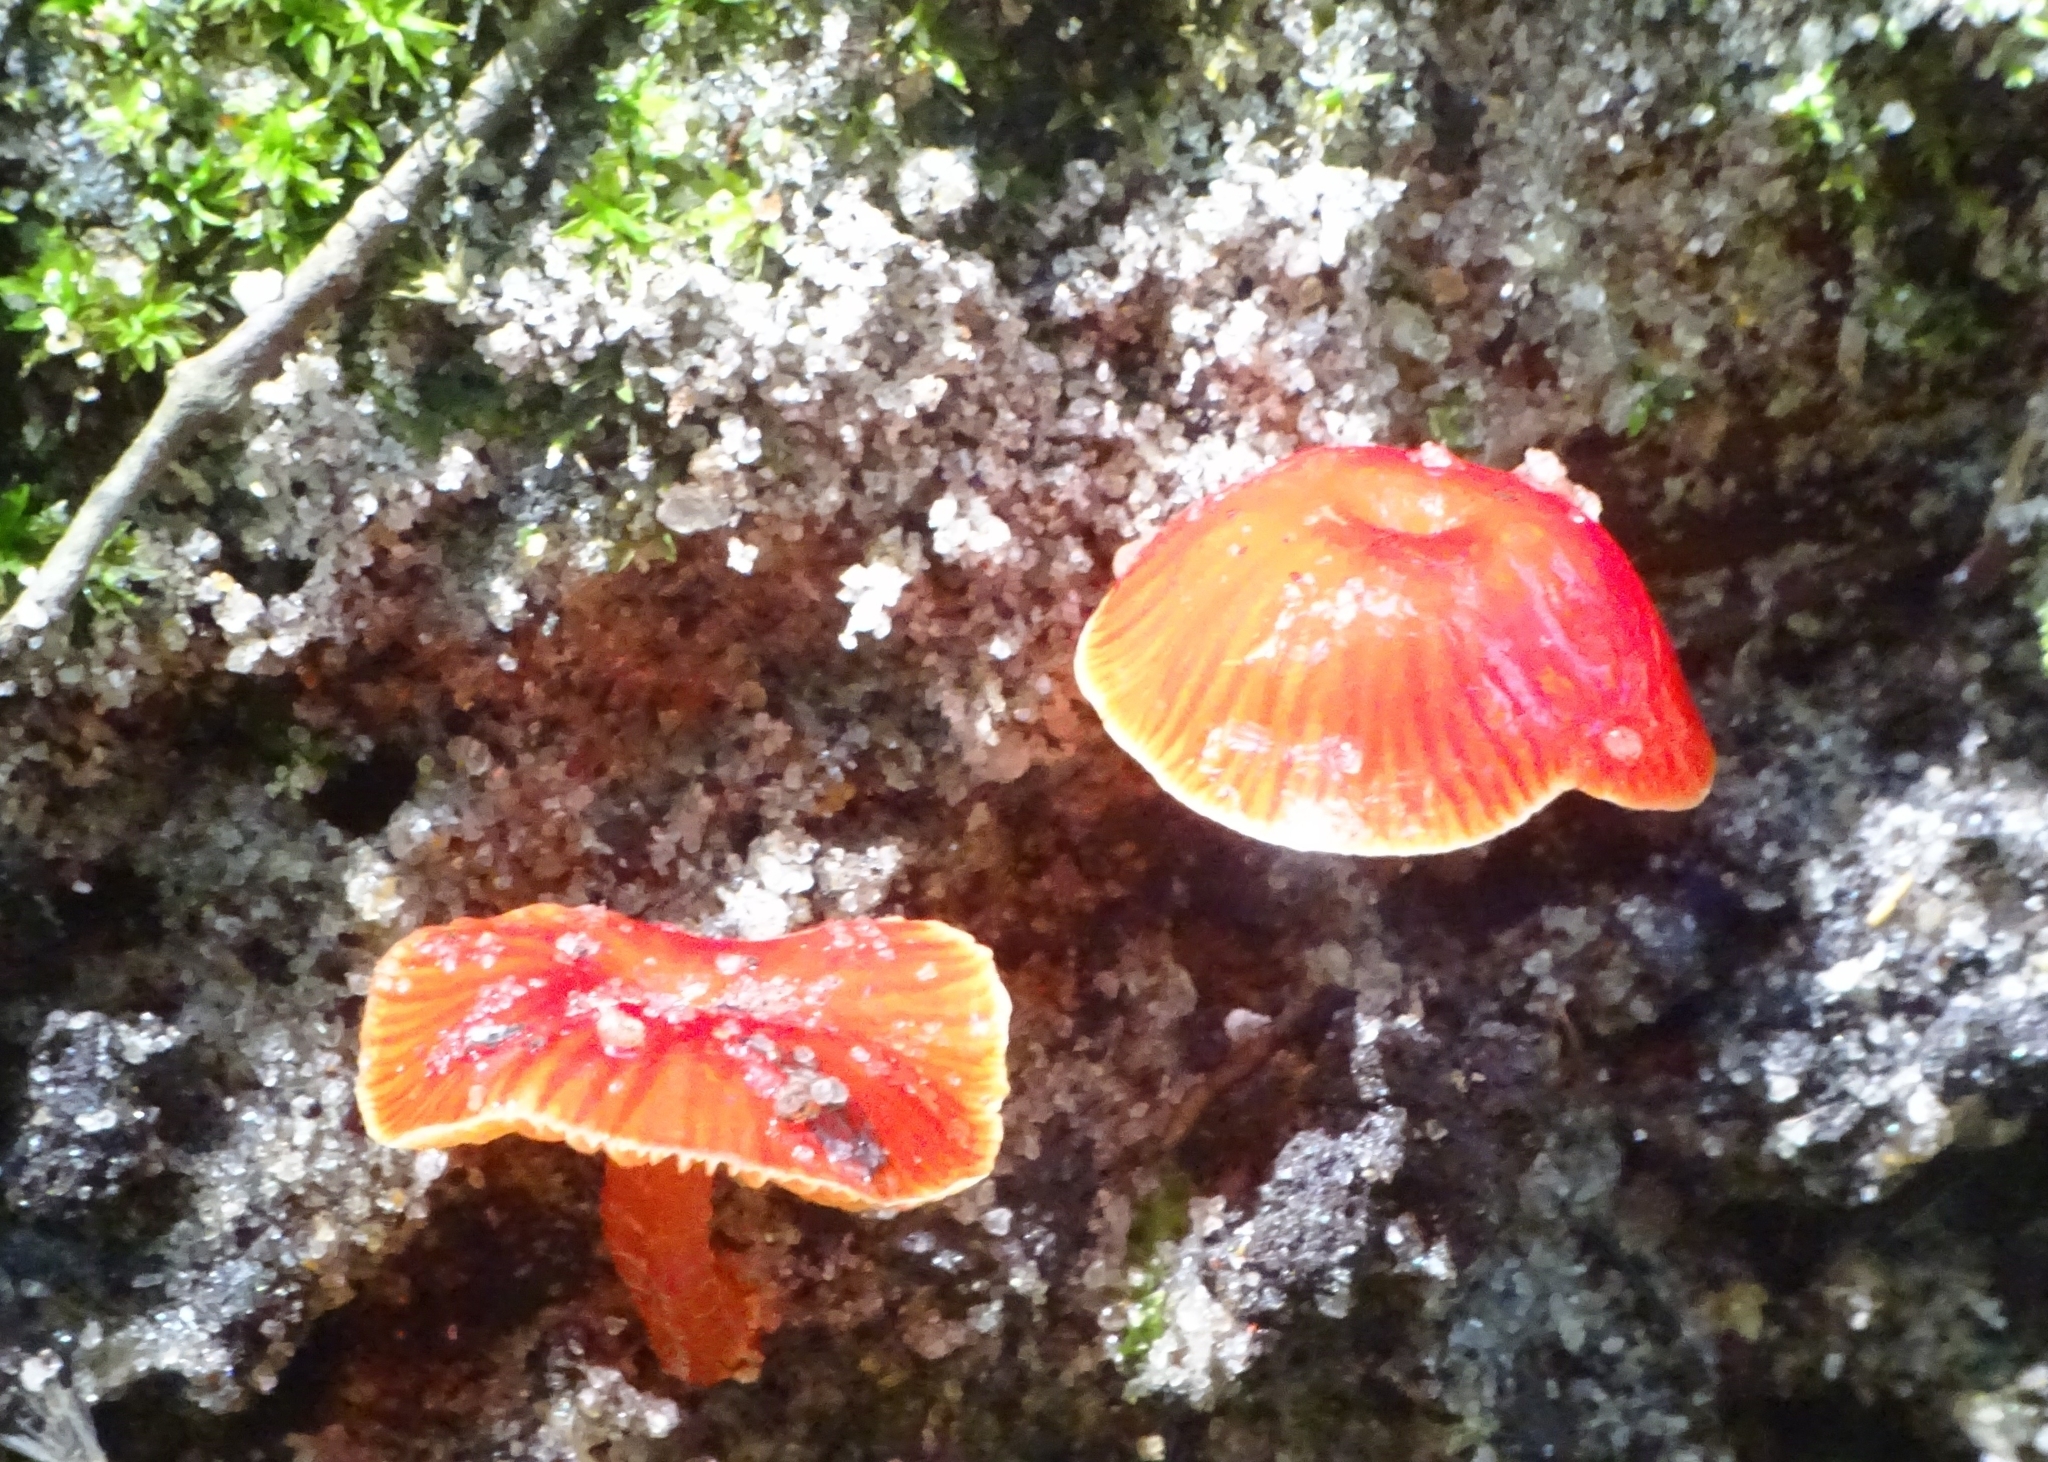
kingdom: Fungi
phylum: Basidiomycota
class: Agaricomycetes
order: Agaricales
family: Hygrophoraceae
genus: Hygrocybe
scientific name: Hygrocybe
